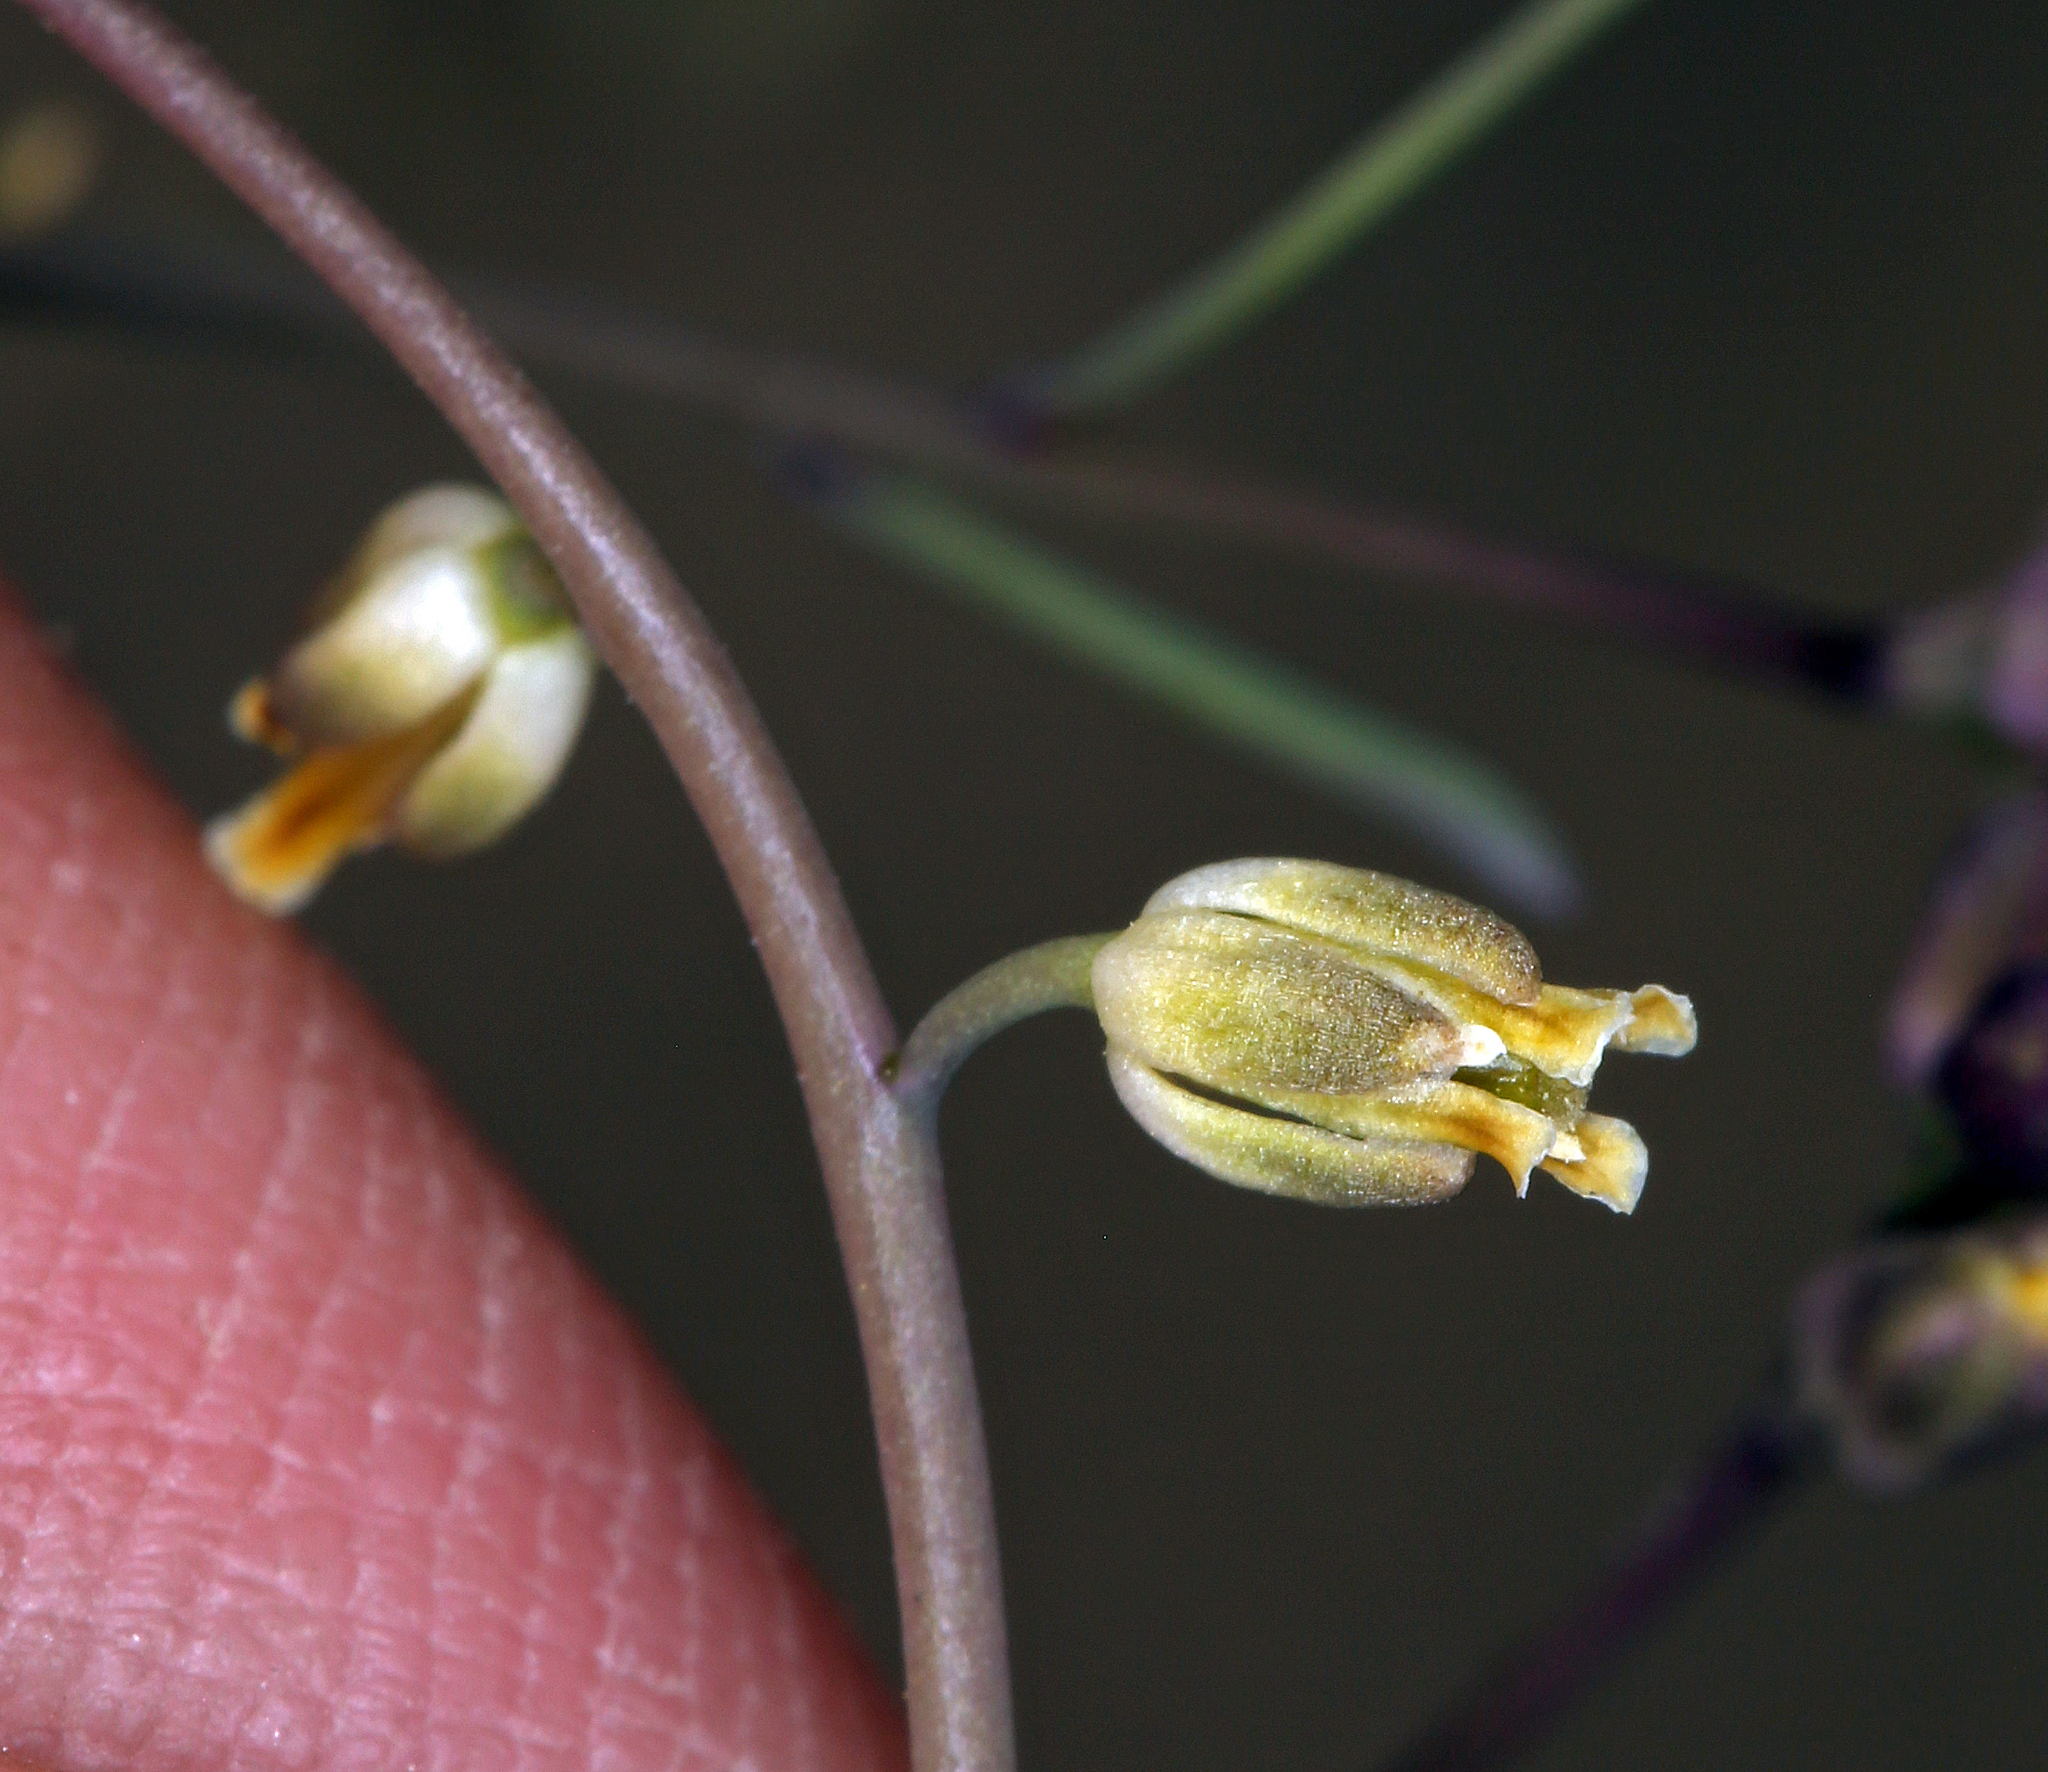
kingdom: Plantae
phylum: Tracheophyta
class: Magnoliopsida
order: Brassicales
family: Brassicaceae
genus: Streptanthus
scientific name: Streptanthus longirostris
